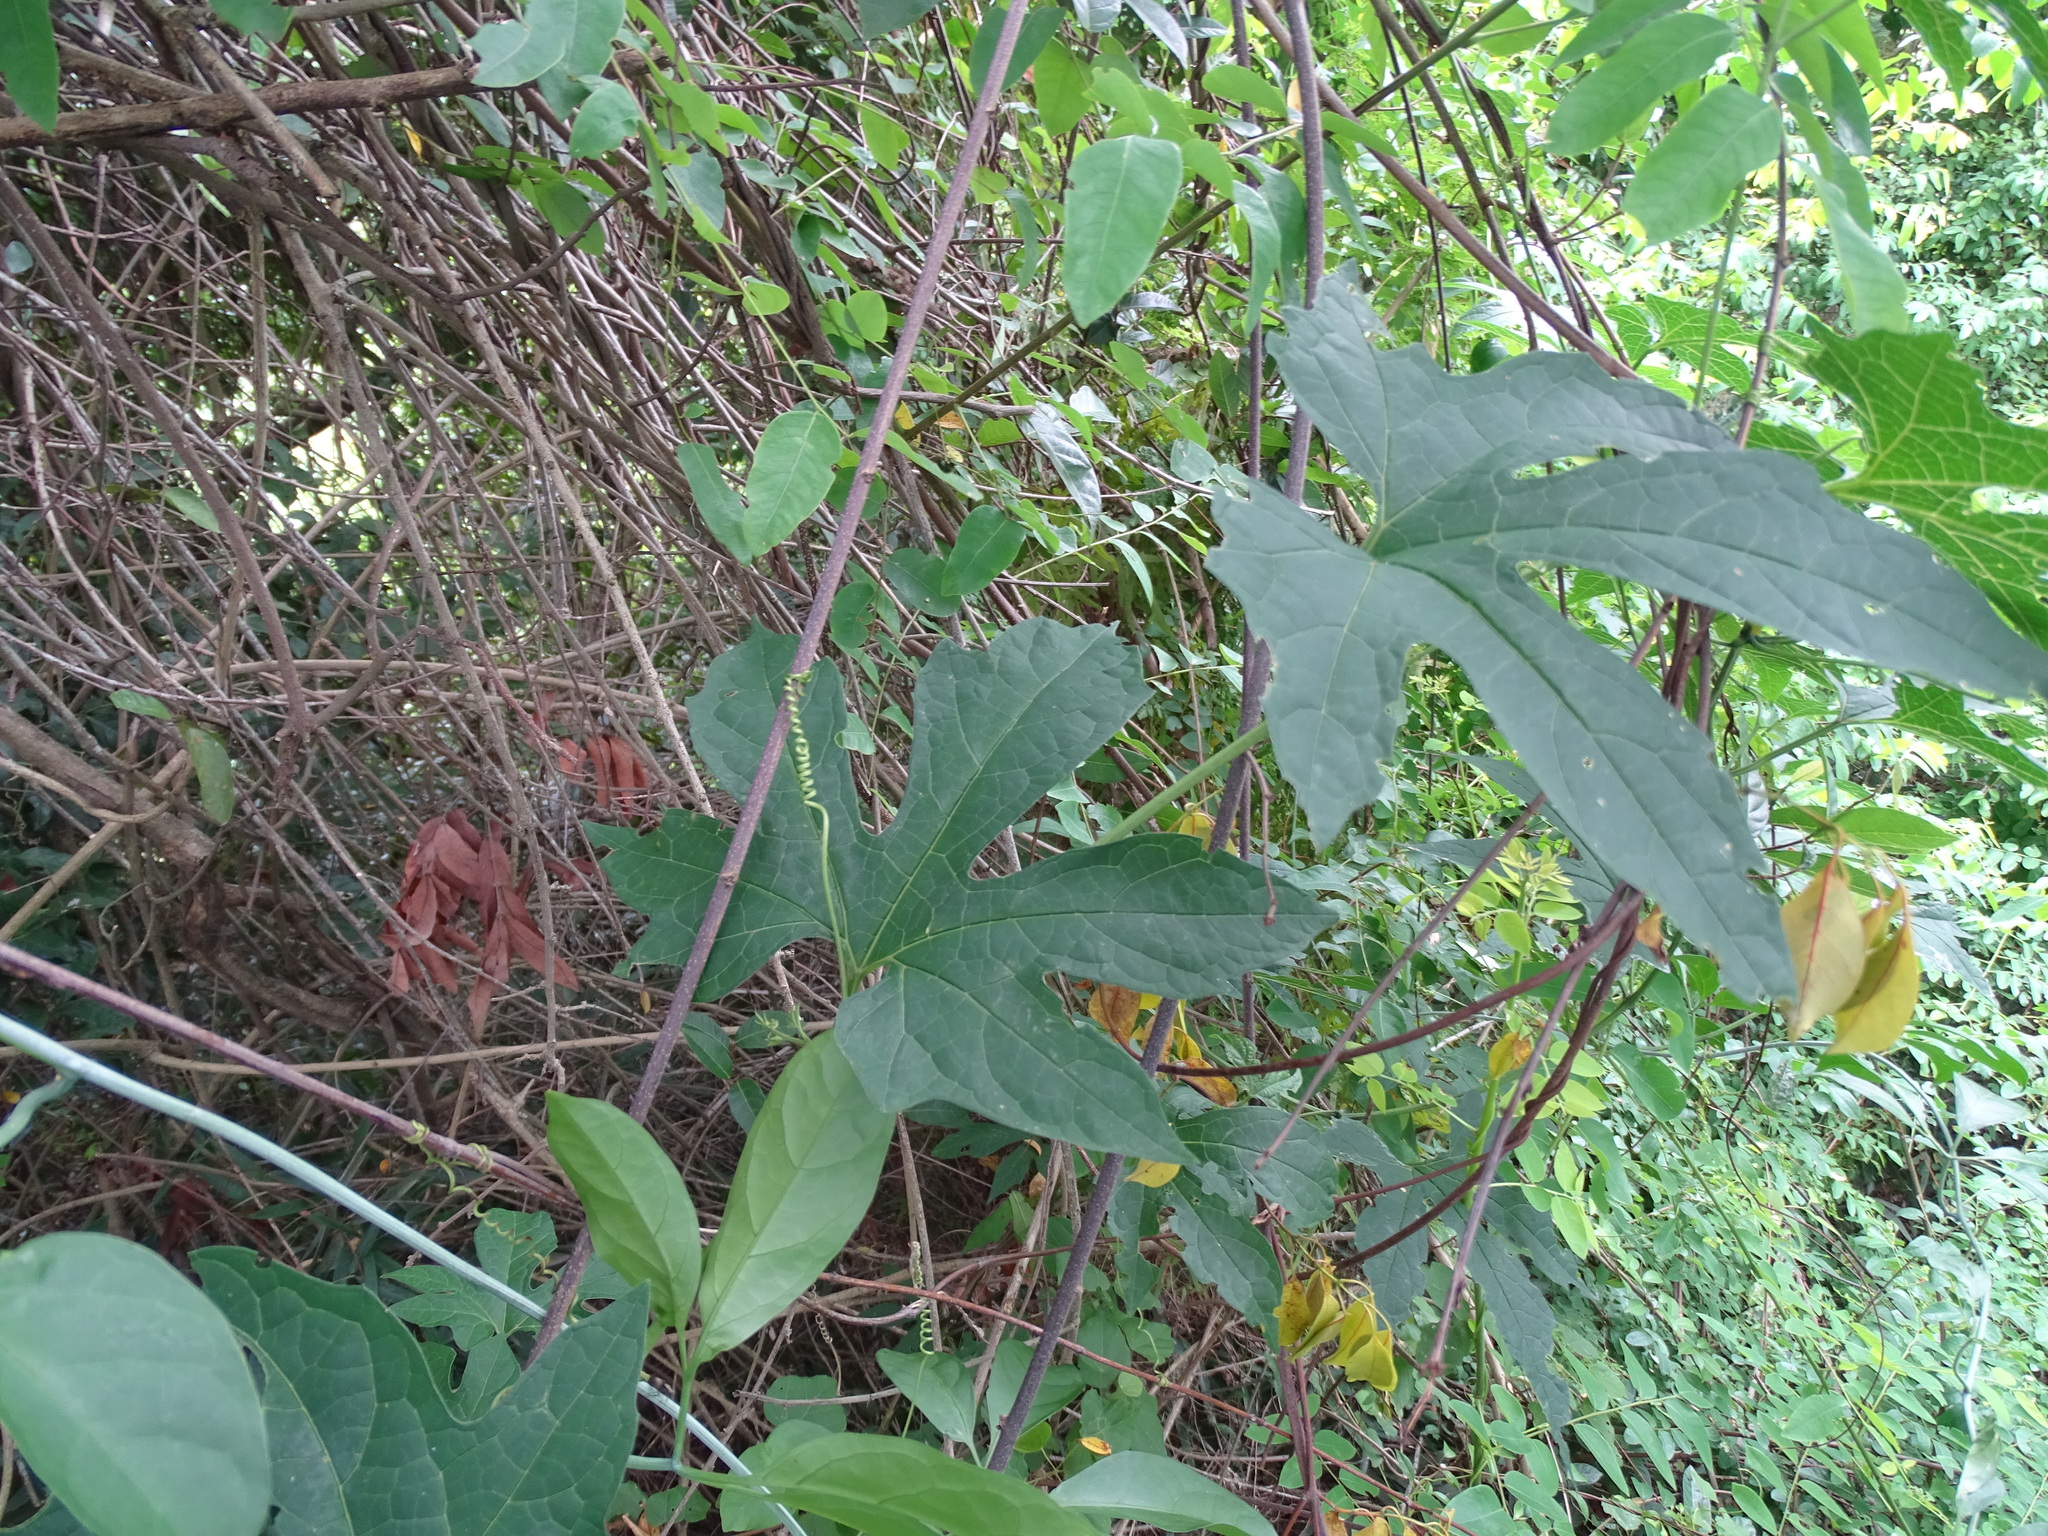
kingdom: Plantae
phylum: Tracheophyta
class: Magnoliopsida
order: Cucurbitales
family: Cucurbitaceae
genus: Momordica
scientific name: Momordica cochinchinensis
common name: Chinese bitter-cucumber
